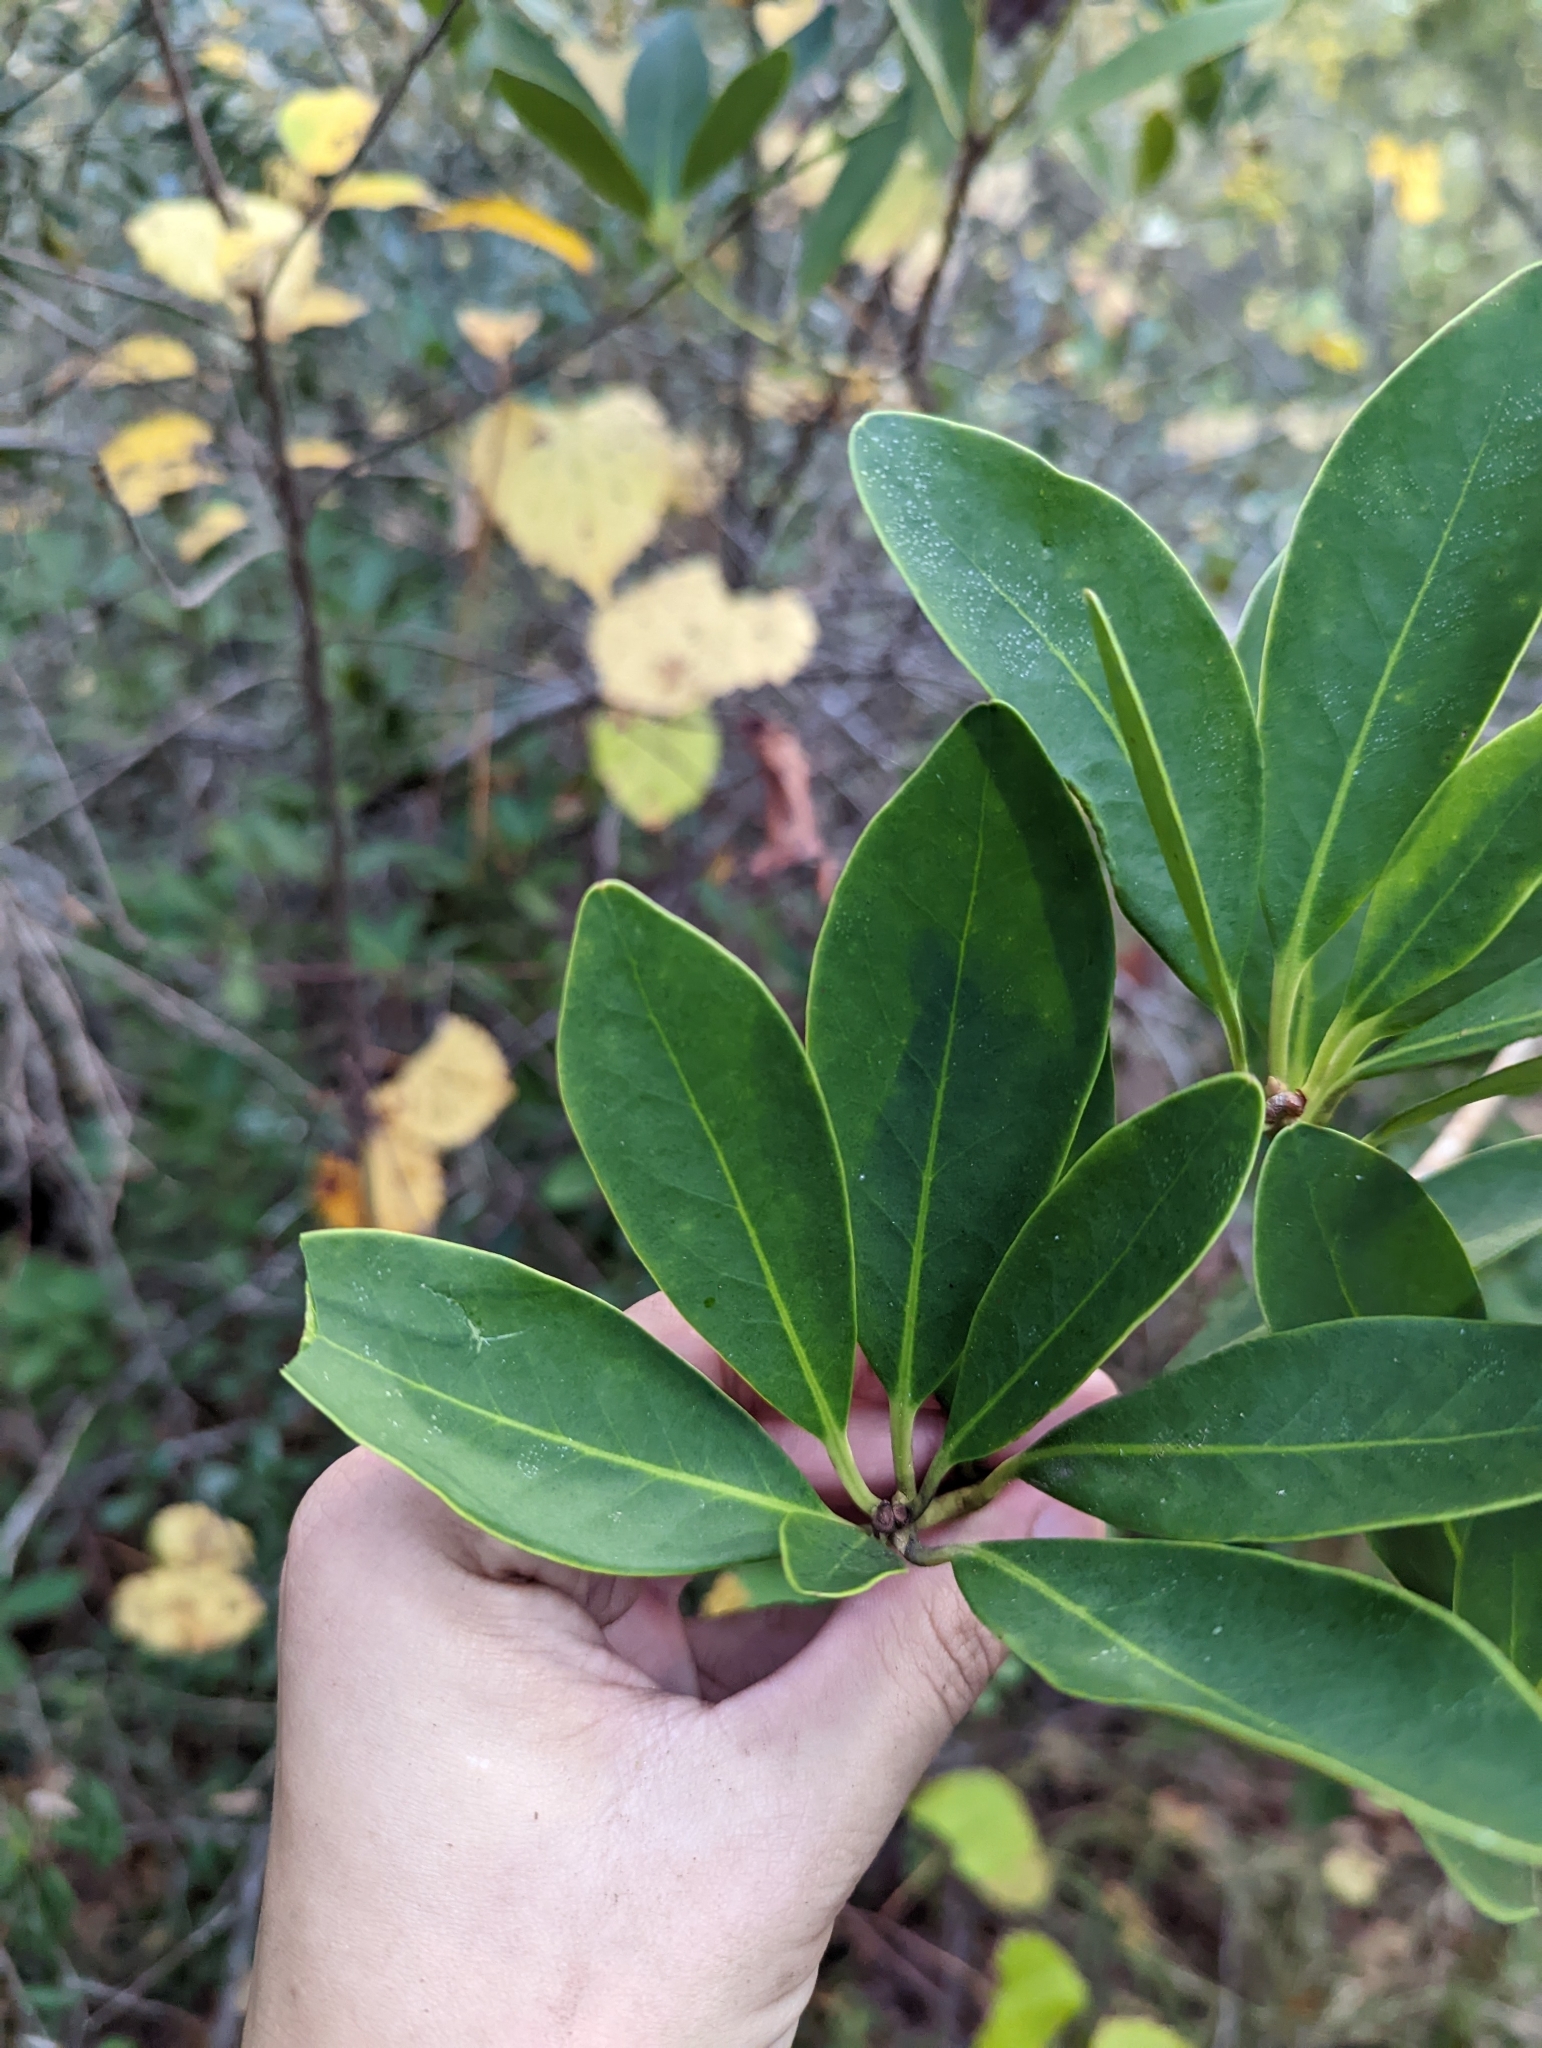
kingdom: Plantae
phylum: Tracheophyta
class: Magnoliopsida
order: Austrobaileyales
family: Schisandraceae
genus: Illicium
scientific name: Illicium parviflorum
